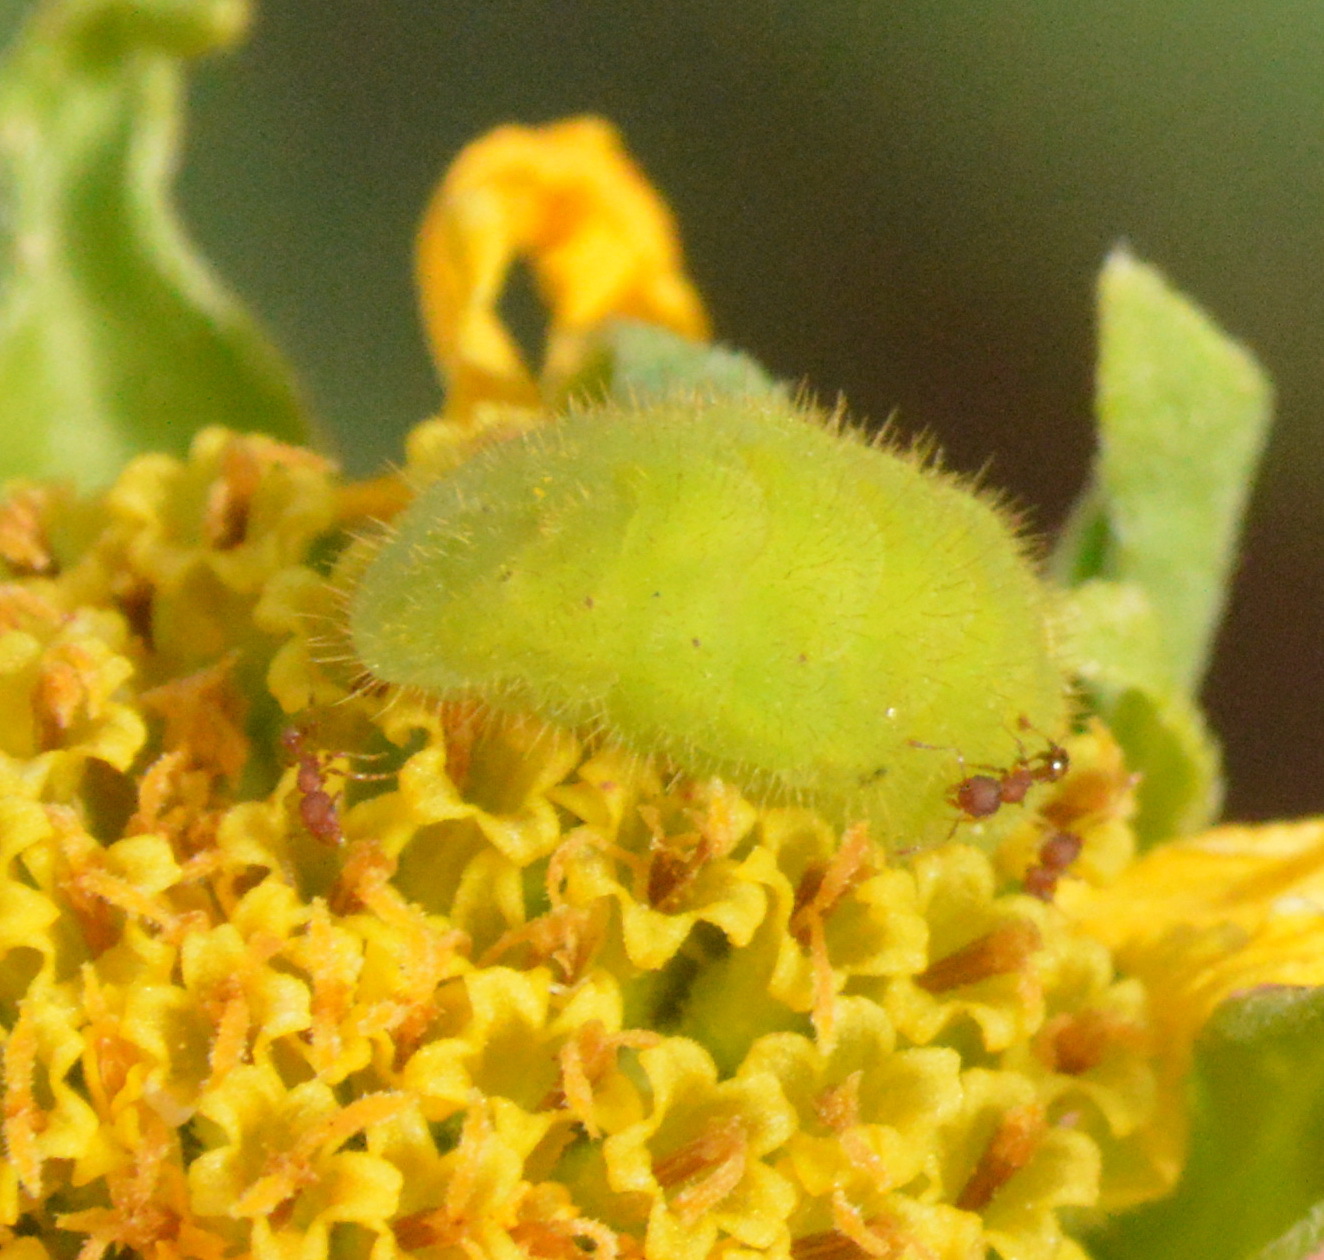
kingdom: Animalia
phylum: Arthropoda
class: Insecta
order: Lepidoptera
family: Lycaenidae
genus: Strymon
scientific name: Strymon melinus
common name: Gray hairstreak
